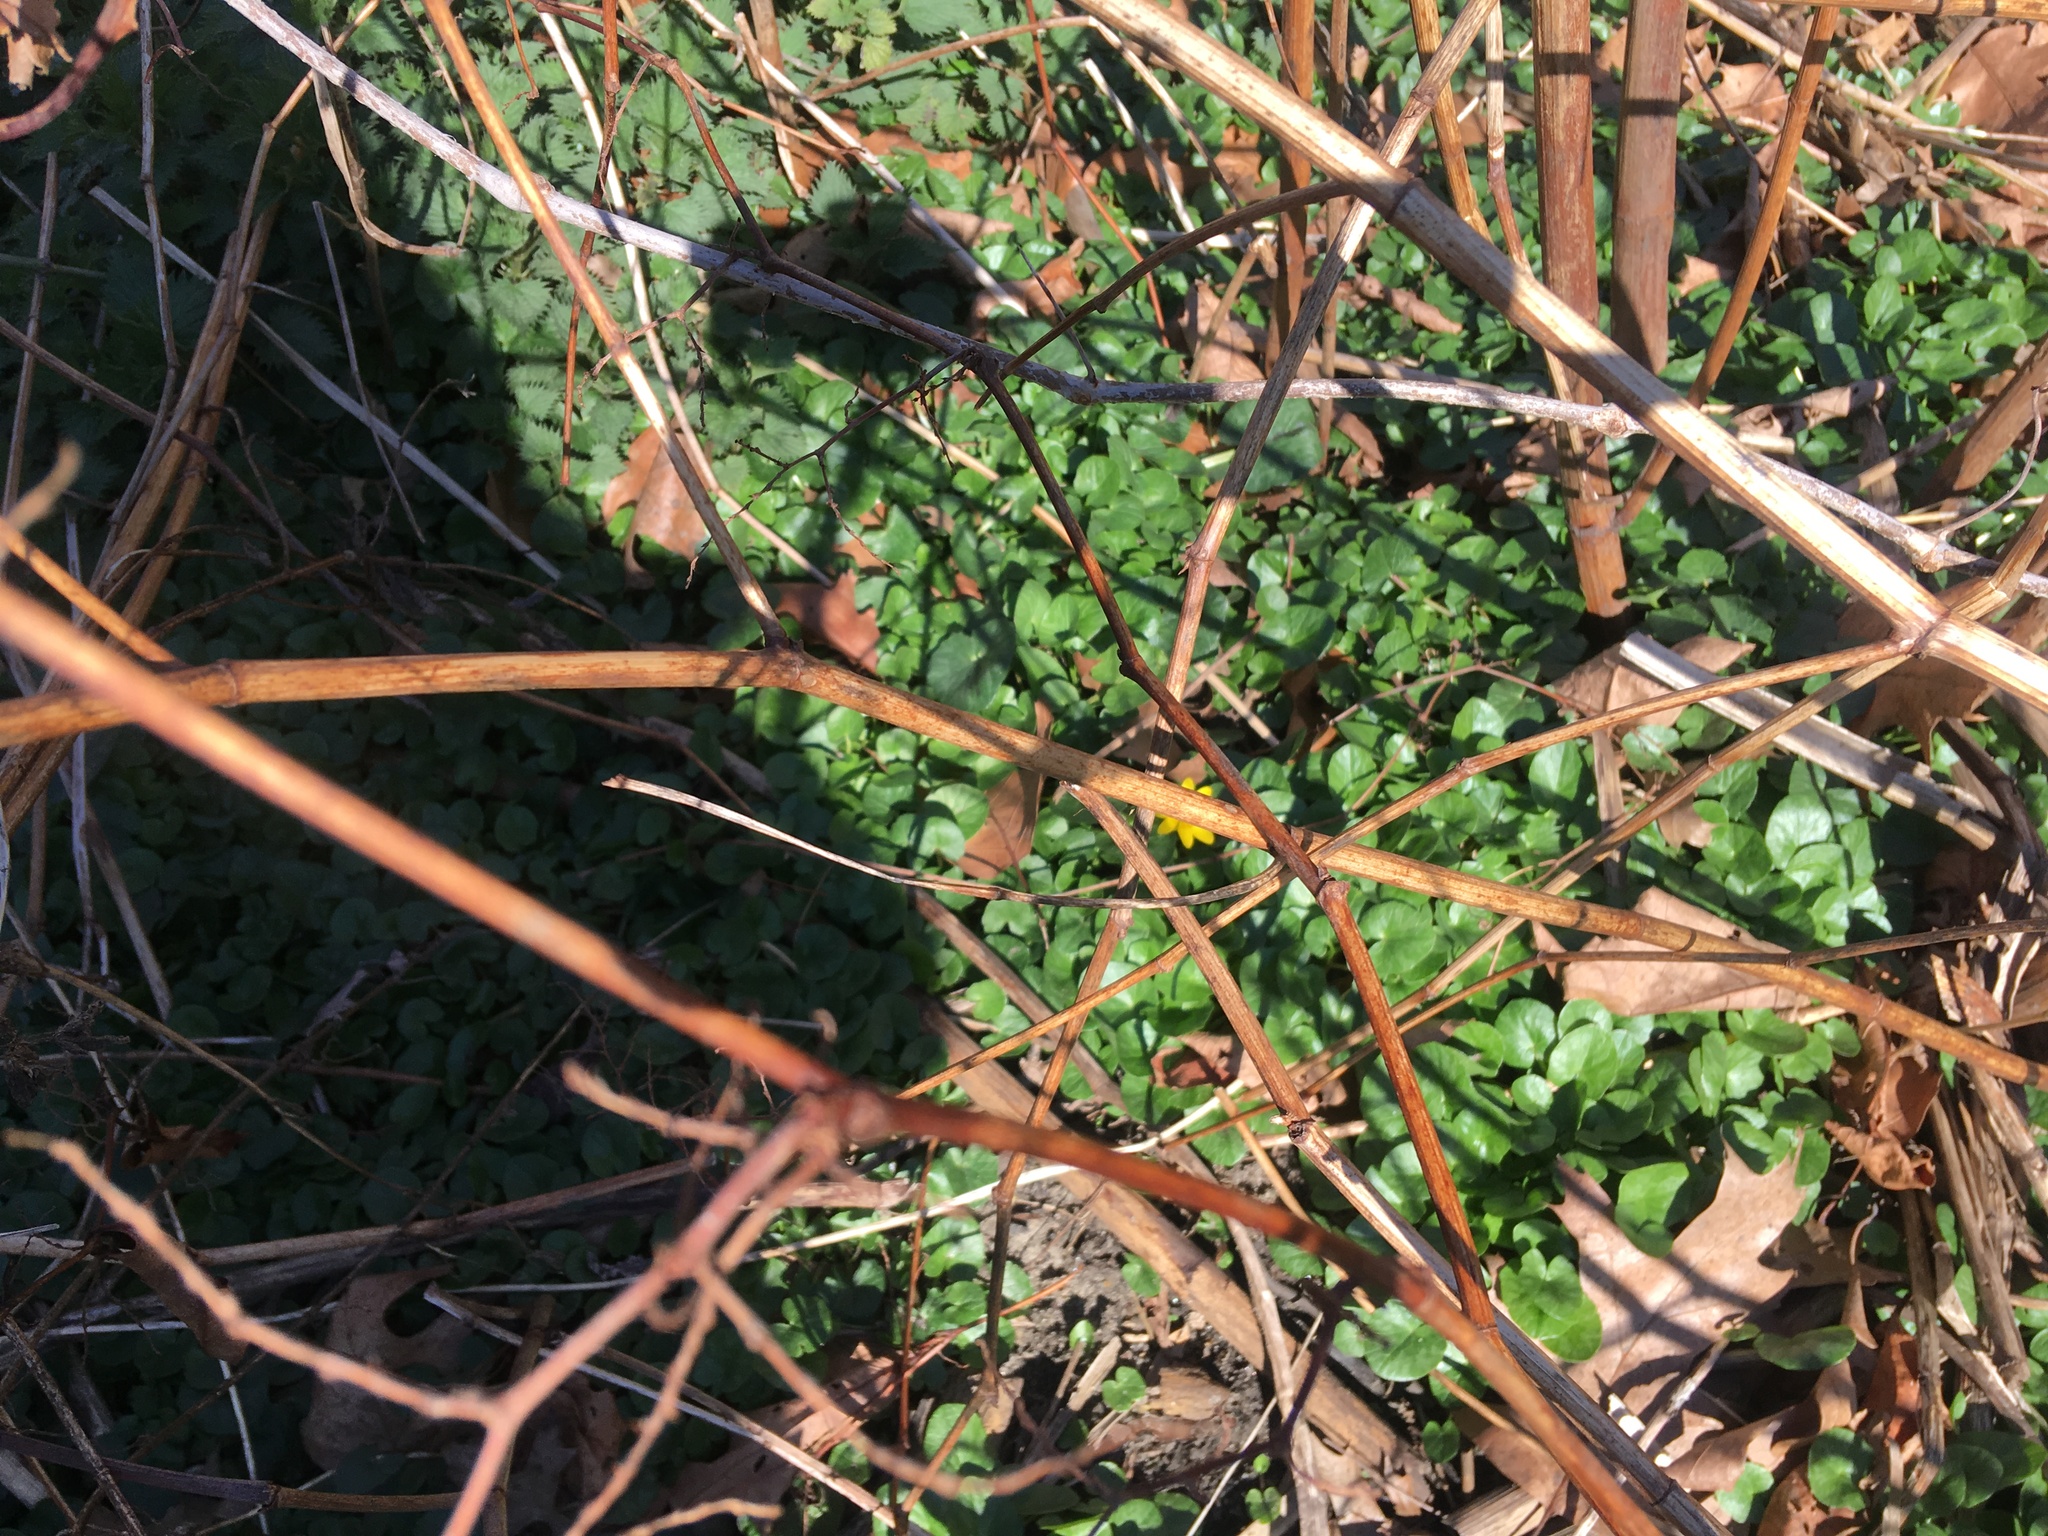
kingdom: Plantae
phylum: Tracheophyta
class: Magnoliopsida
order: Ranunculales
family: Ranunculaceae
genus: Ficaria
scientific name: Ficaria verna
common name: Lesser celandine
